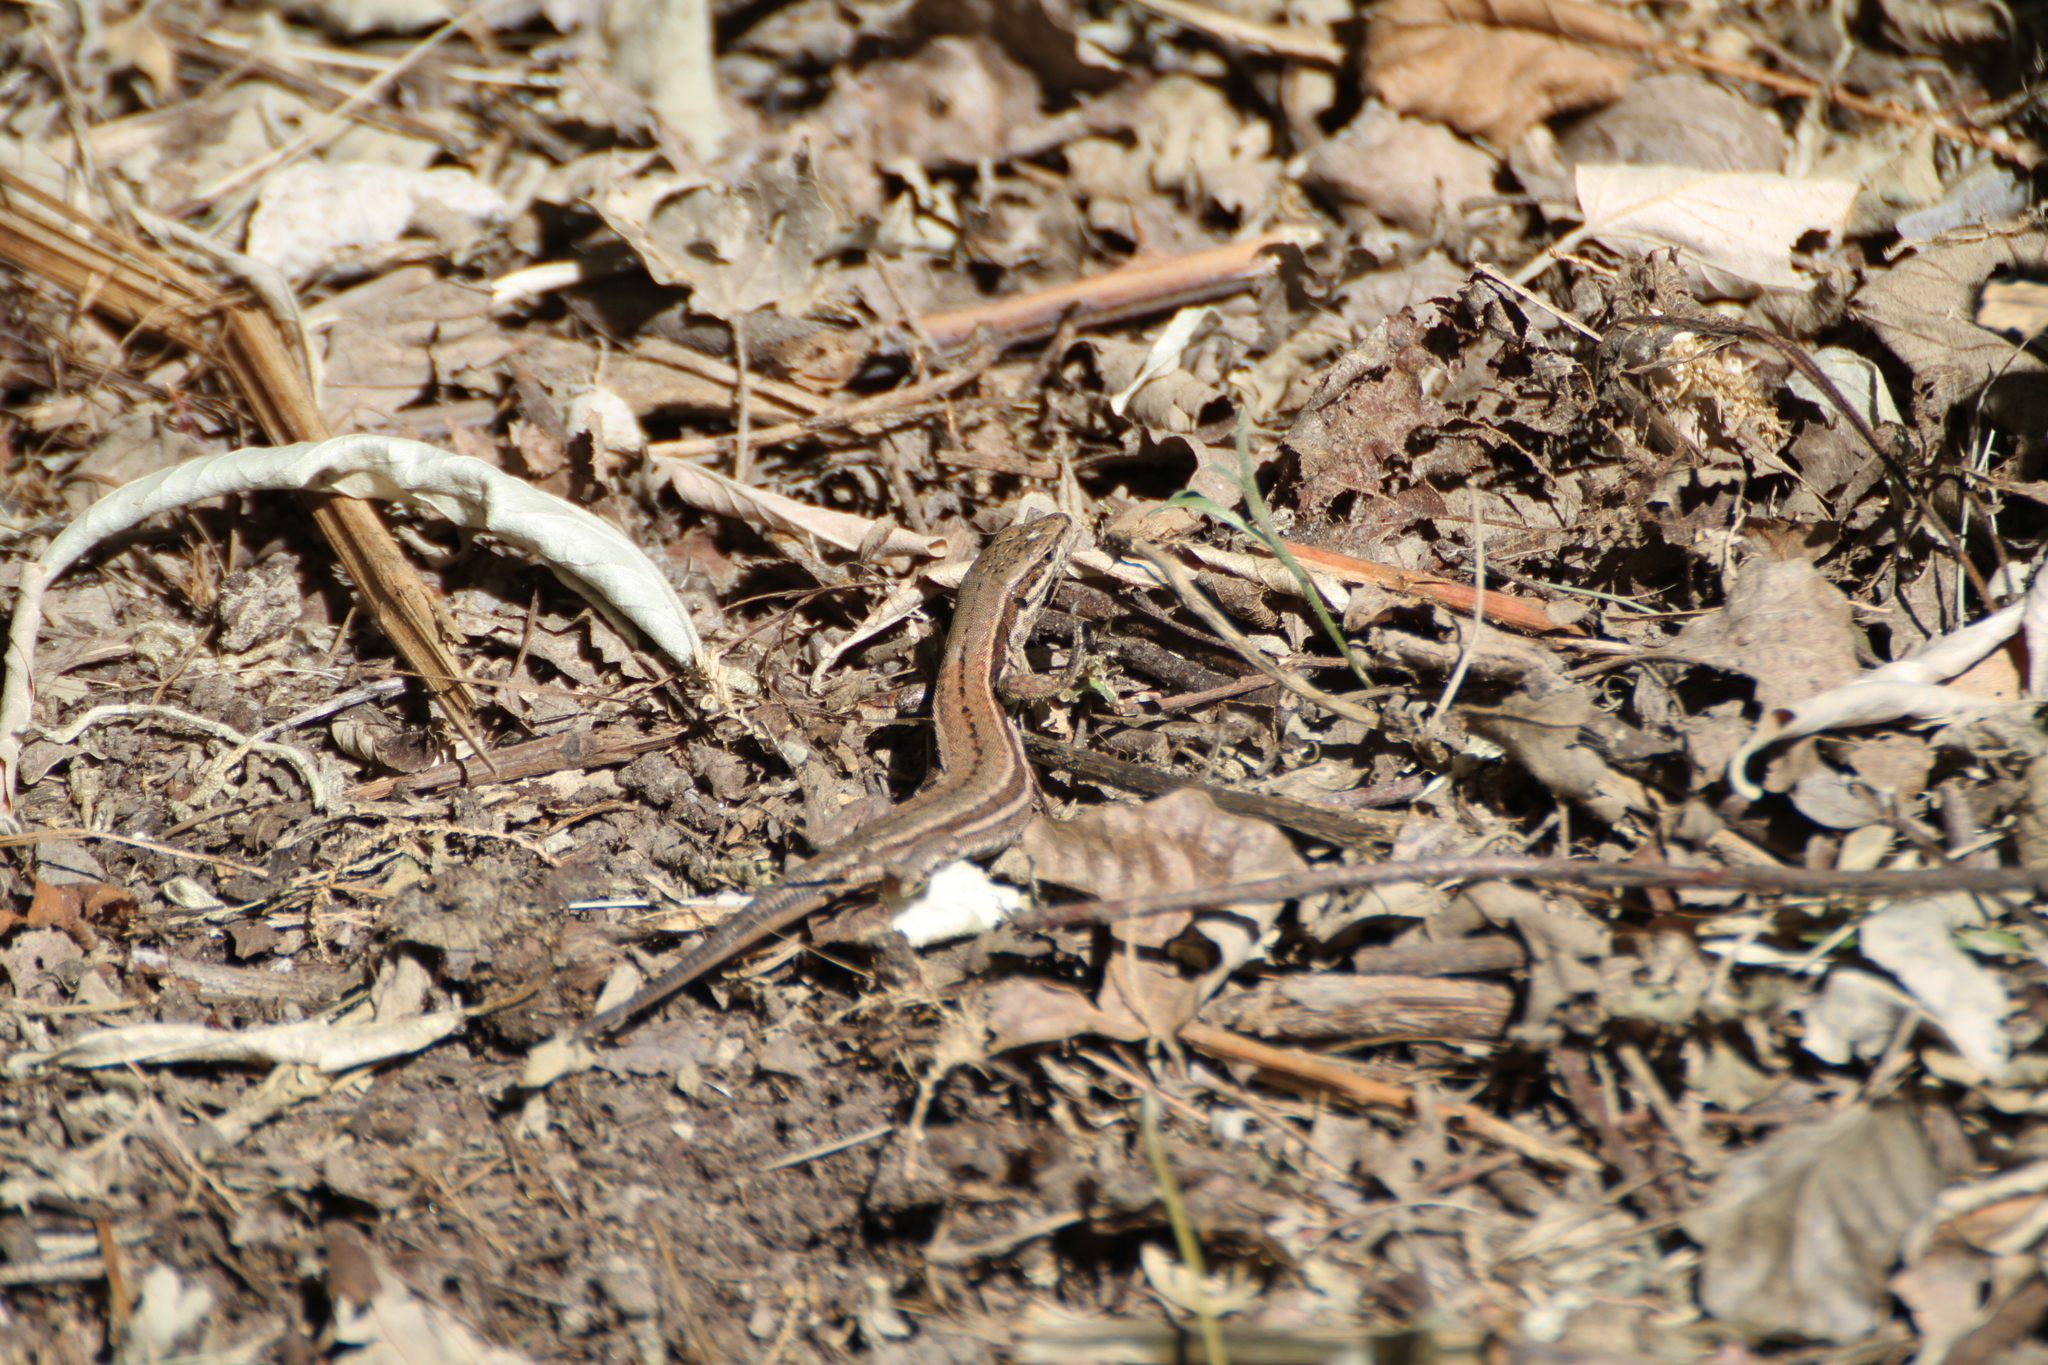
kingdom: Animalia
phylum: Chordata
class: Squamata
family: Lacertidae
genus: Podarcis
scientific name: Podarcis muralis
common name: Common wall lizard
